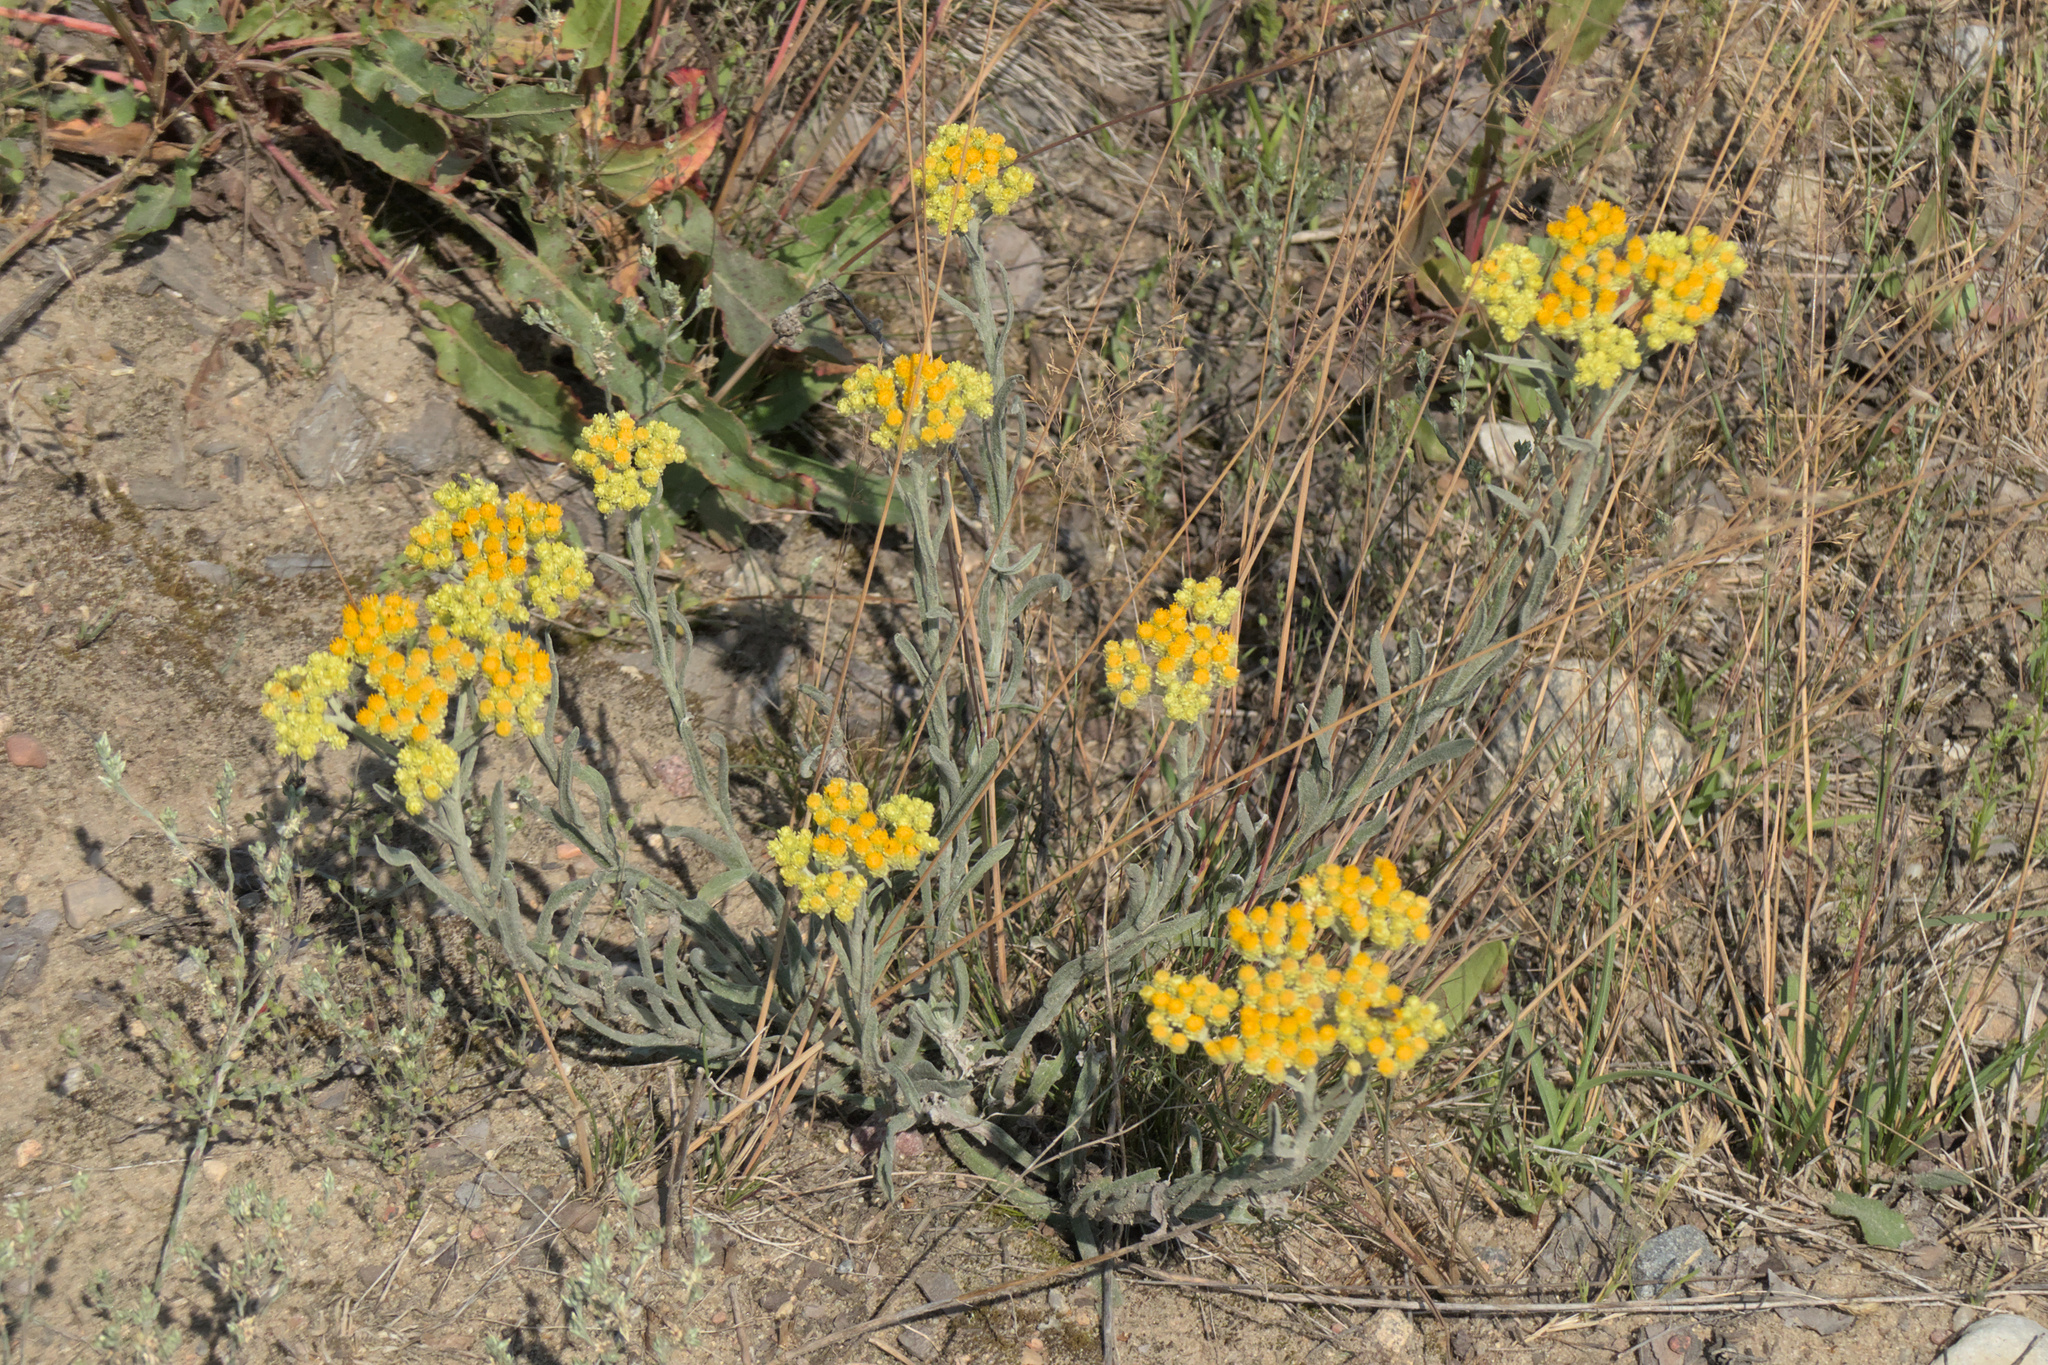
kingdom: Plantae
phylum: Tracheophyta
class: Magnoliopsida
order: Asterales
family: Asteraceae
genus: Helichrysum
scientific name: Helichrysum arenarium
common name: Strawflower
